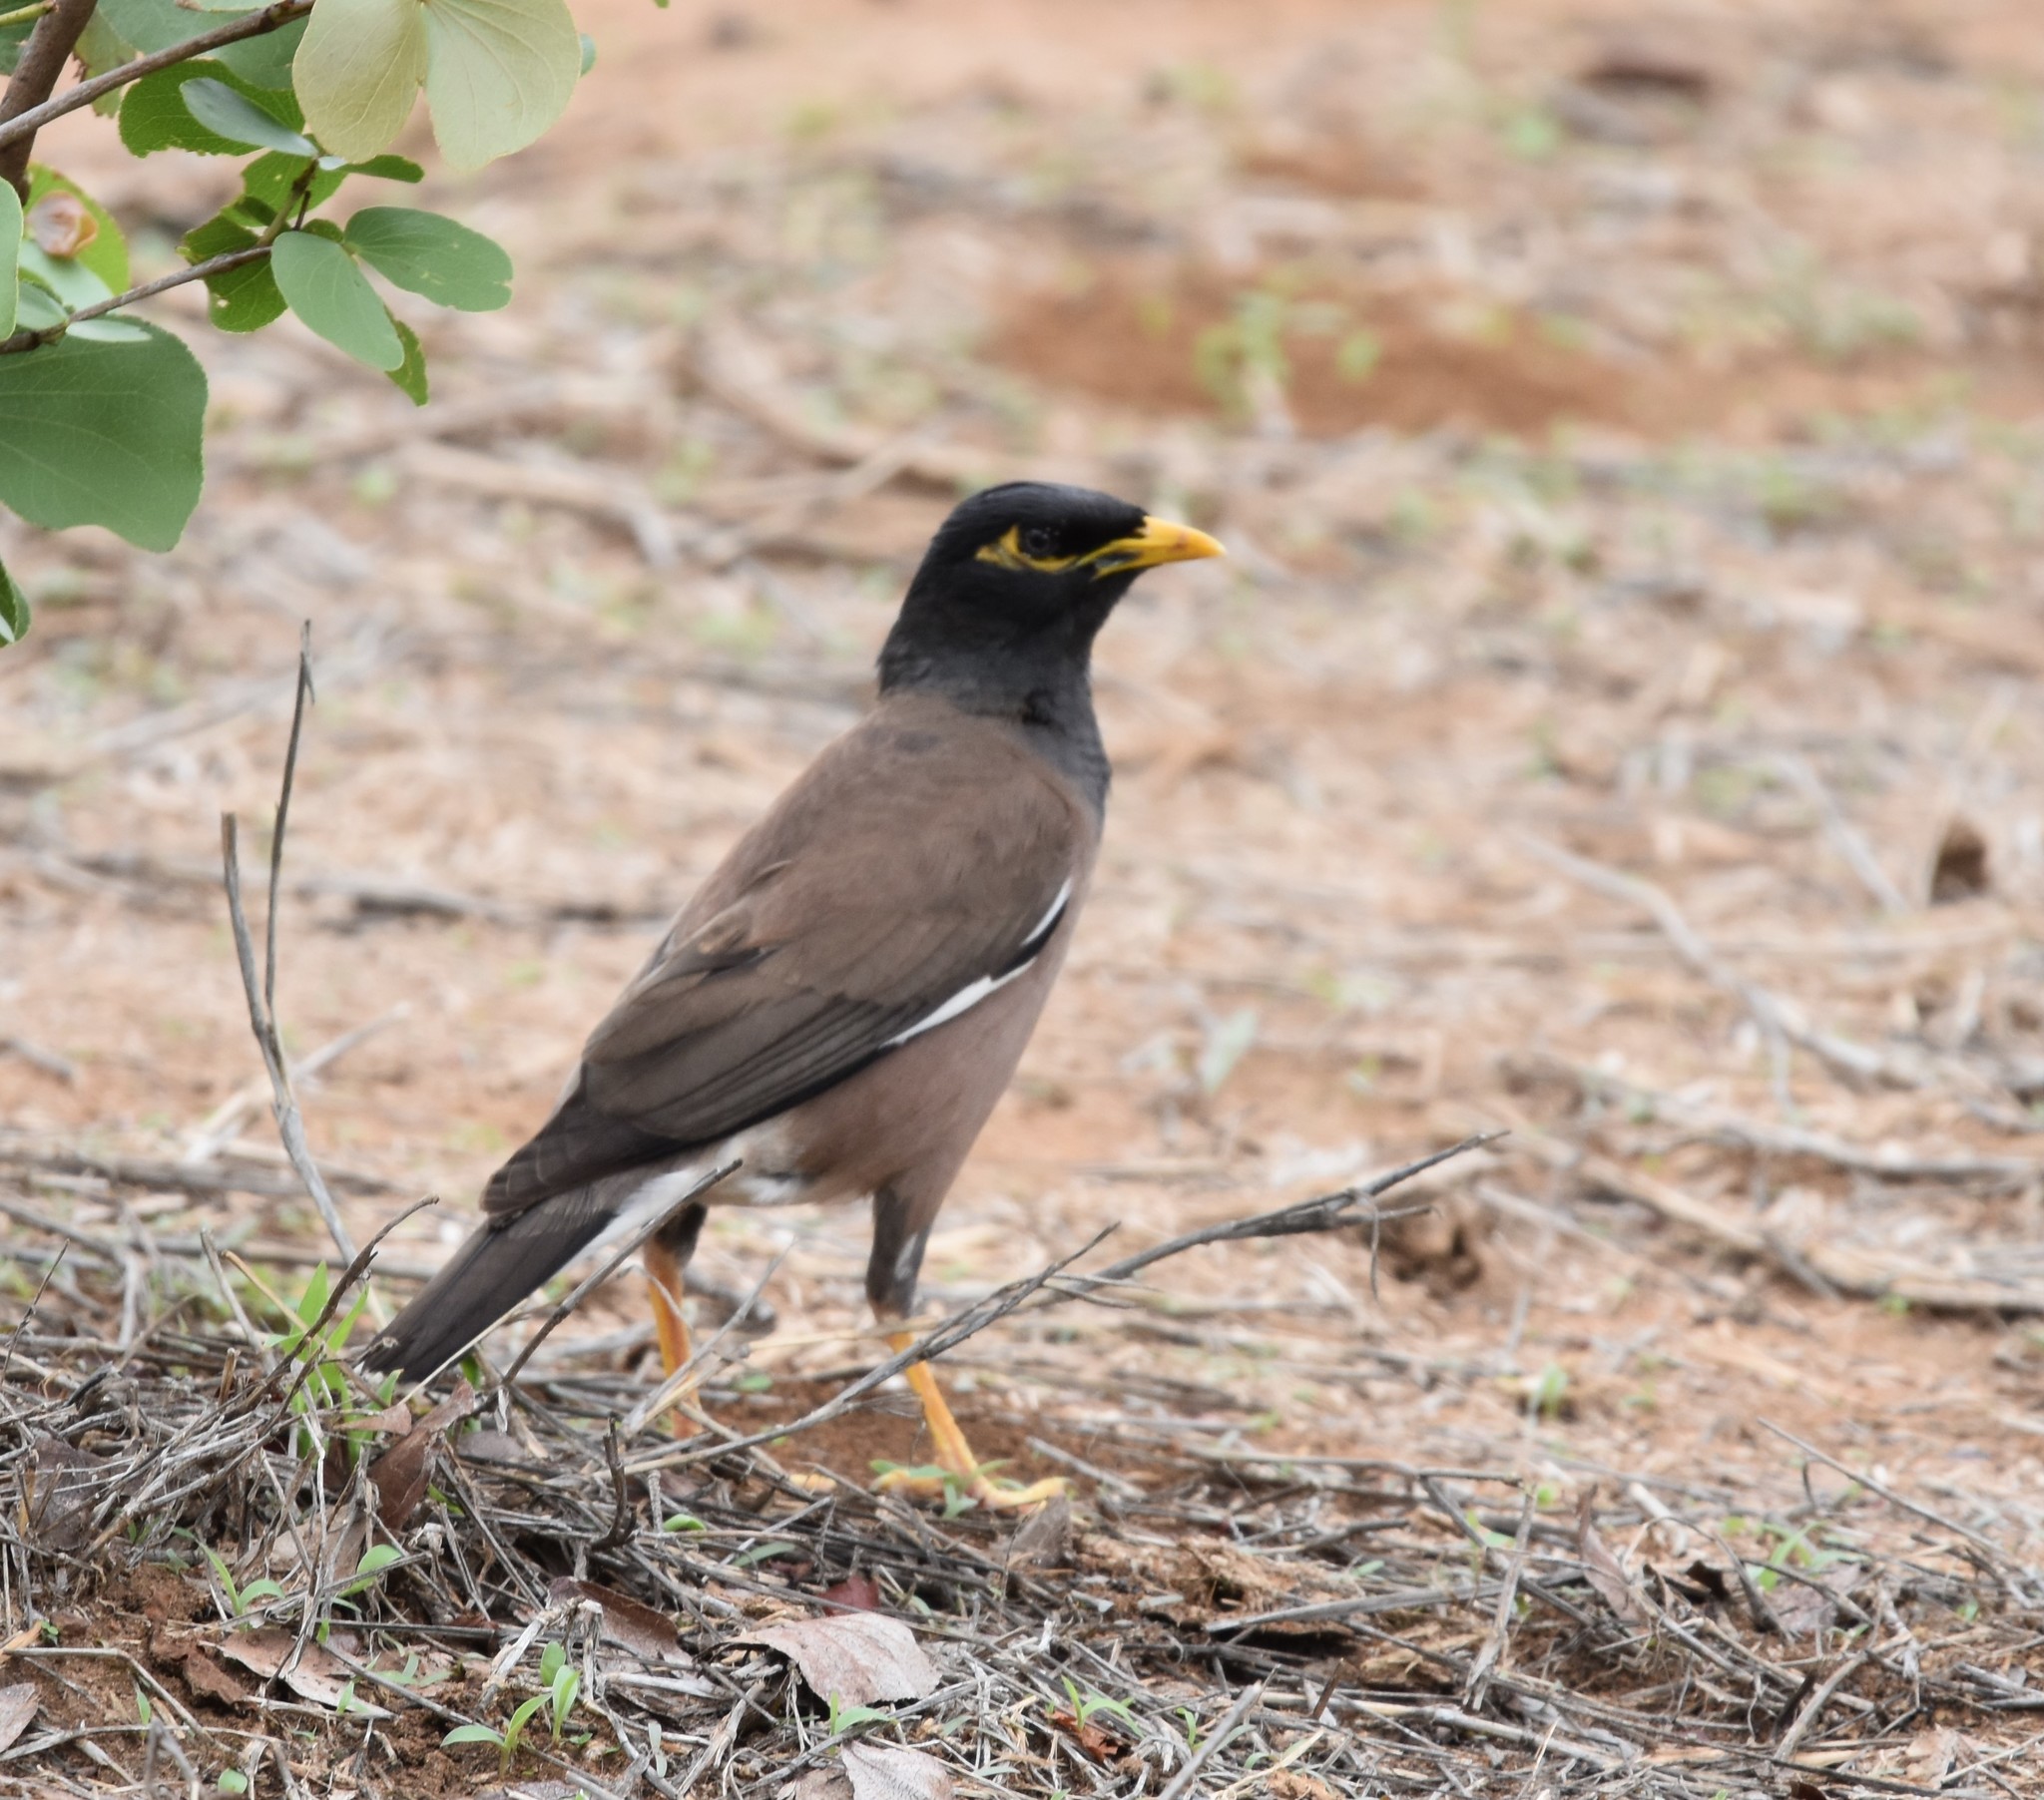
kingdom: Animalia
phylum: Chordata
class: Aves
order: Passeriformes
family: Sturnidae
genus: Acridotheres
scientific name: Acridotheres tristis
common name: Common myna
